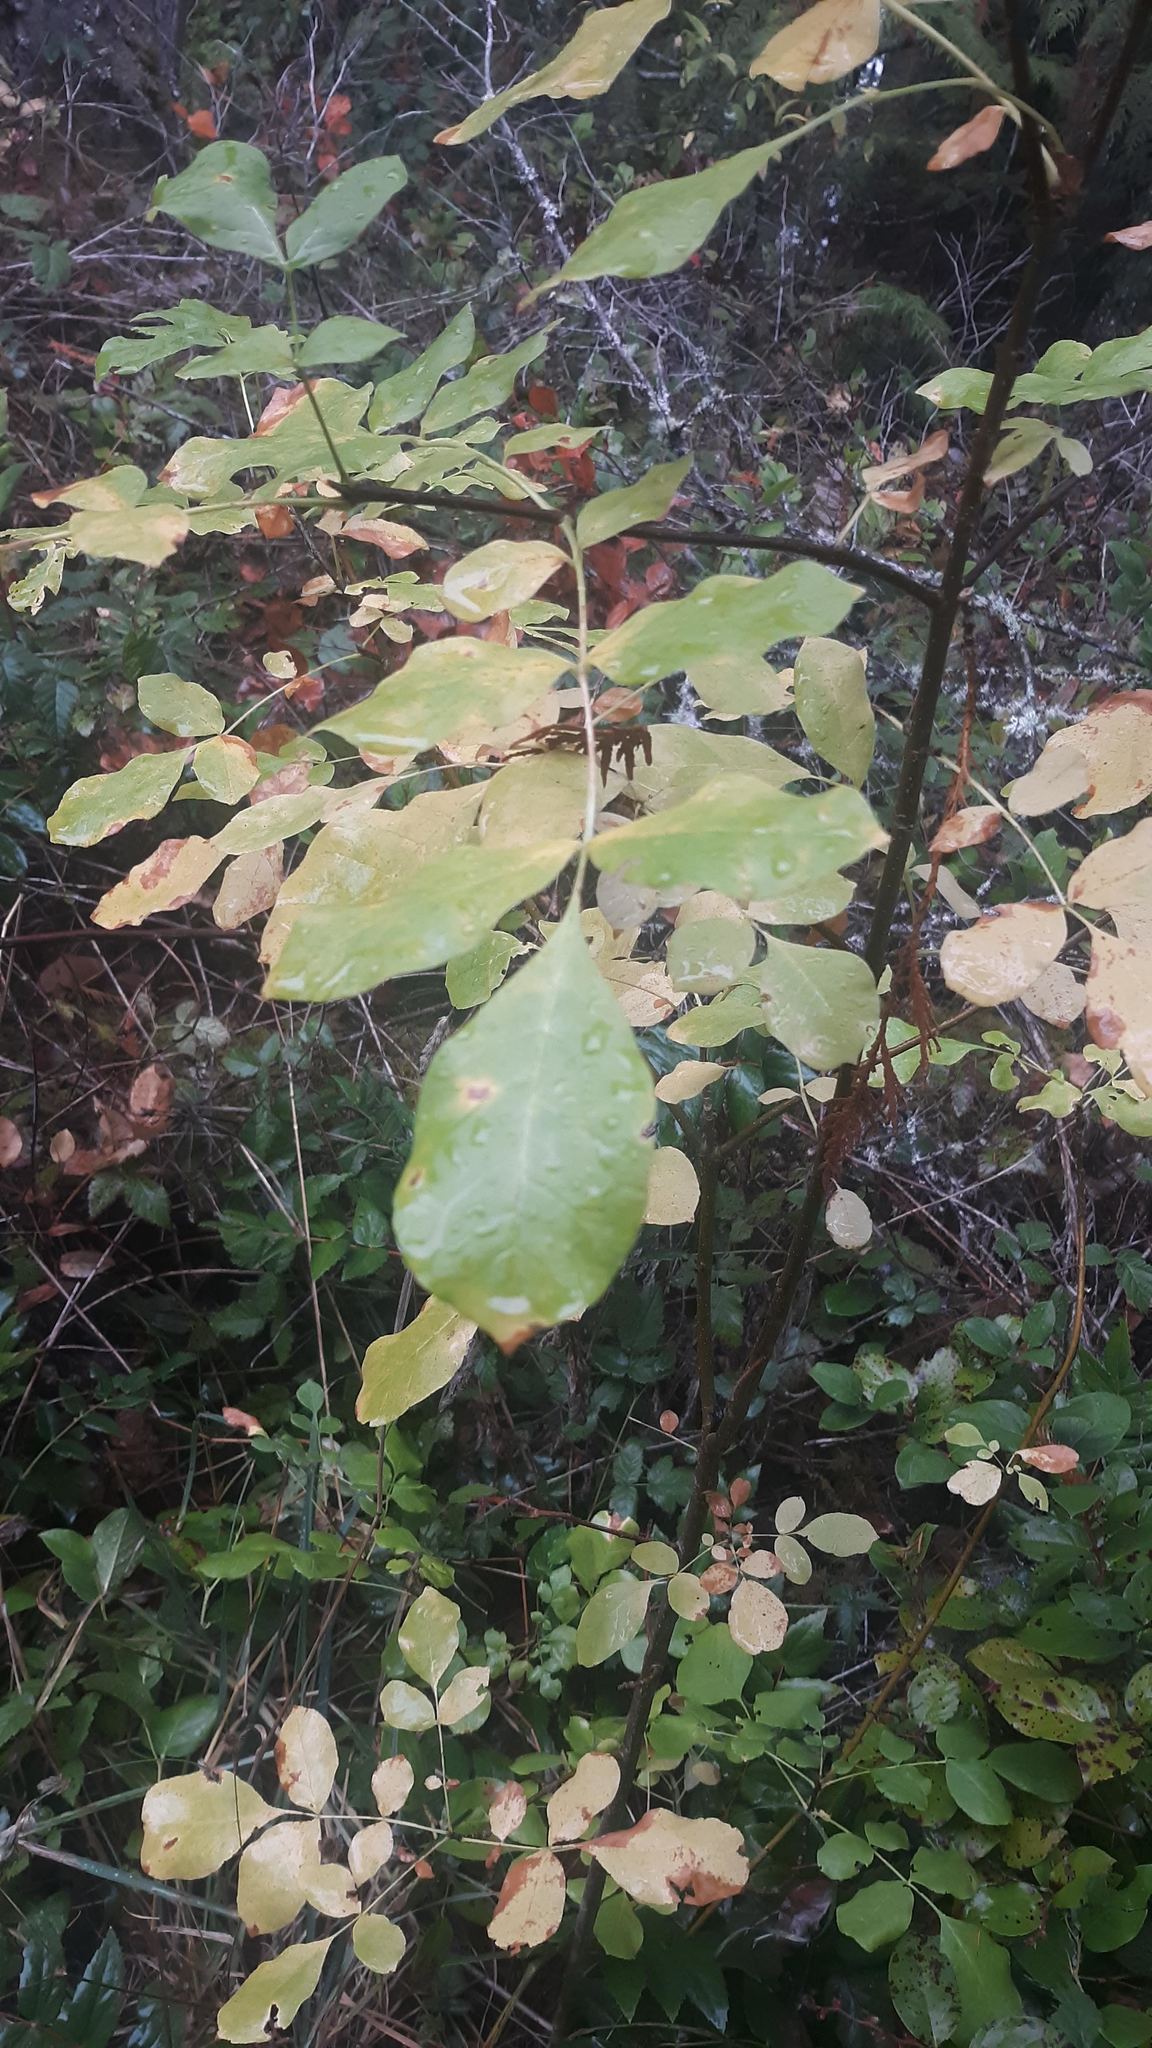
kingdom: Plantae
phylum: Tracheophyta
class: Magnoliopsida
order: Lamiales
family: Oleaceae
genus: Fraxinus
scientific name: Fraxinus latifolia
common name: Oregon ash
